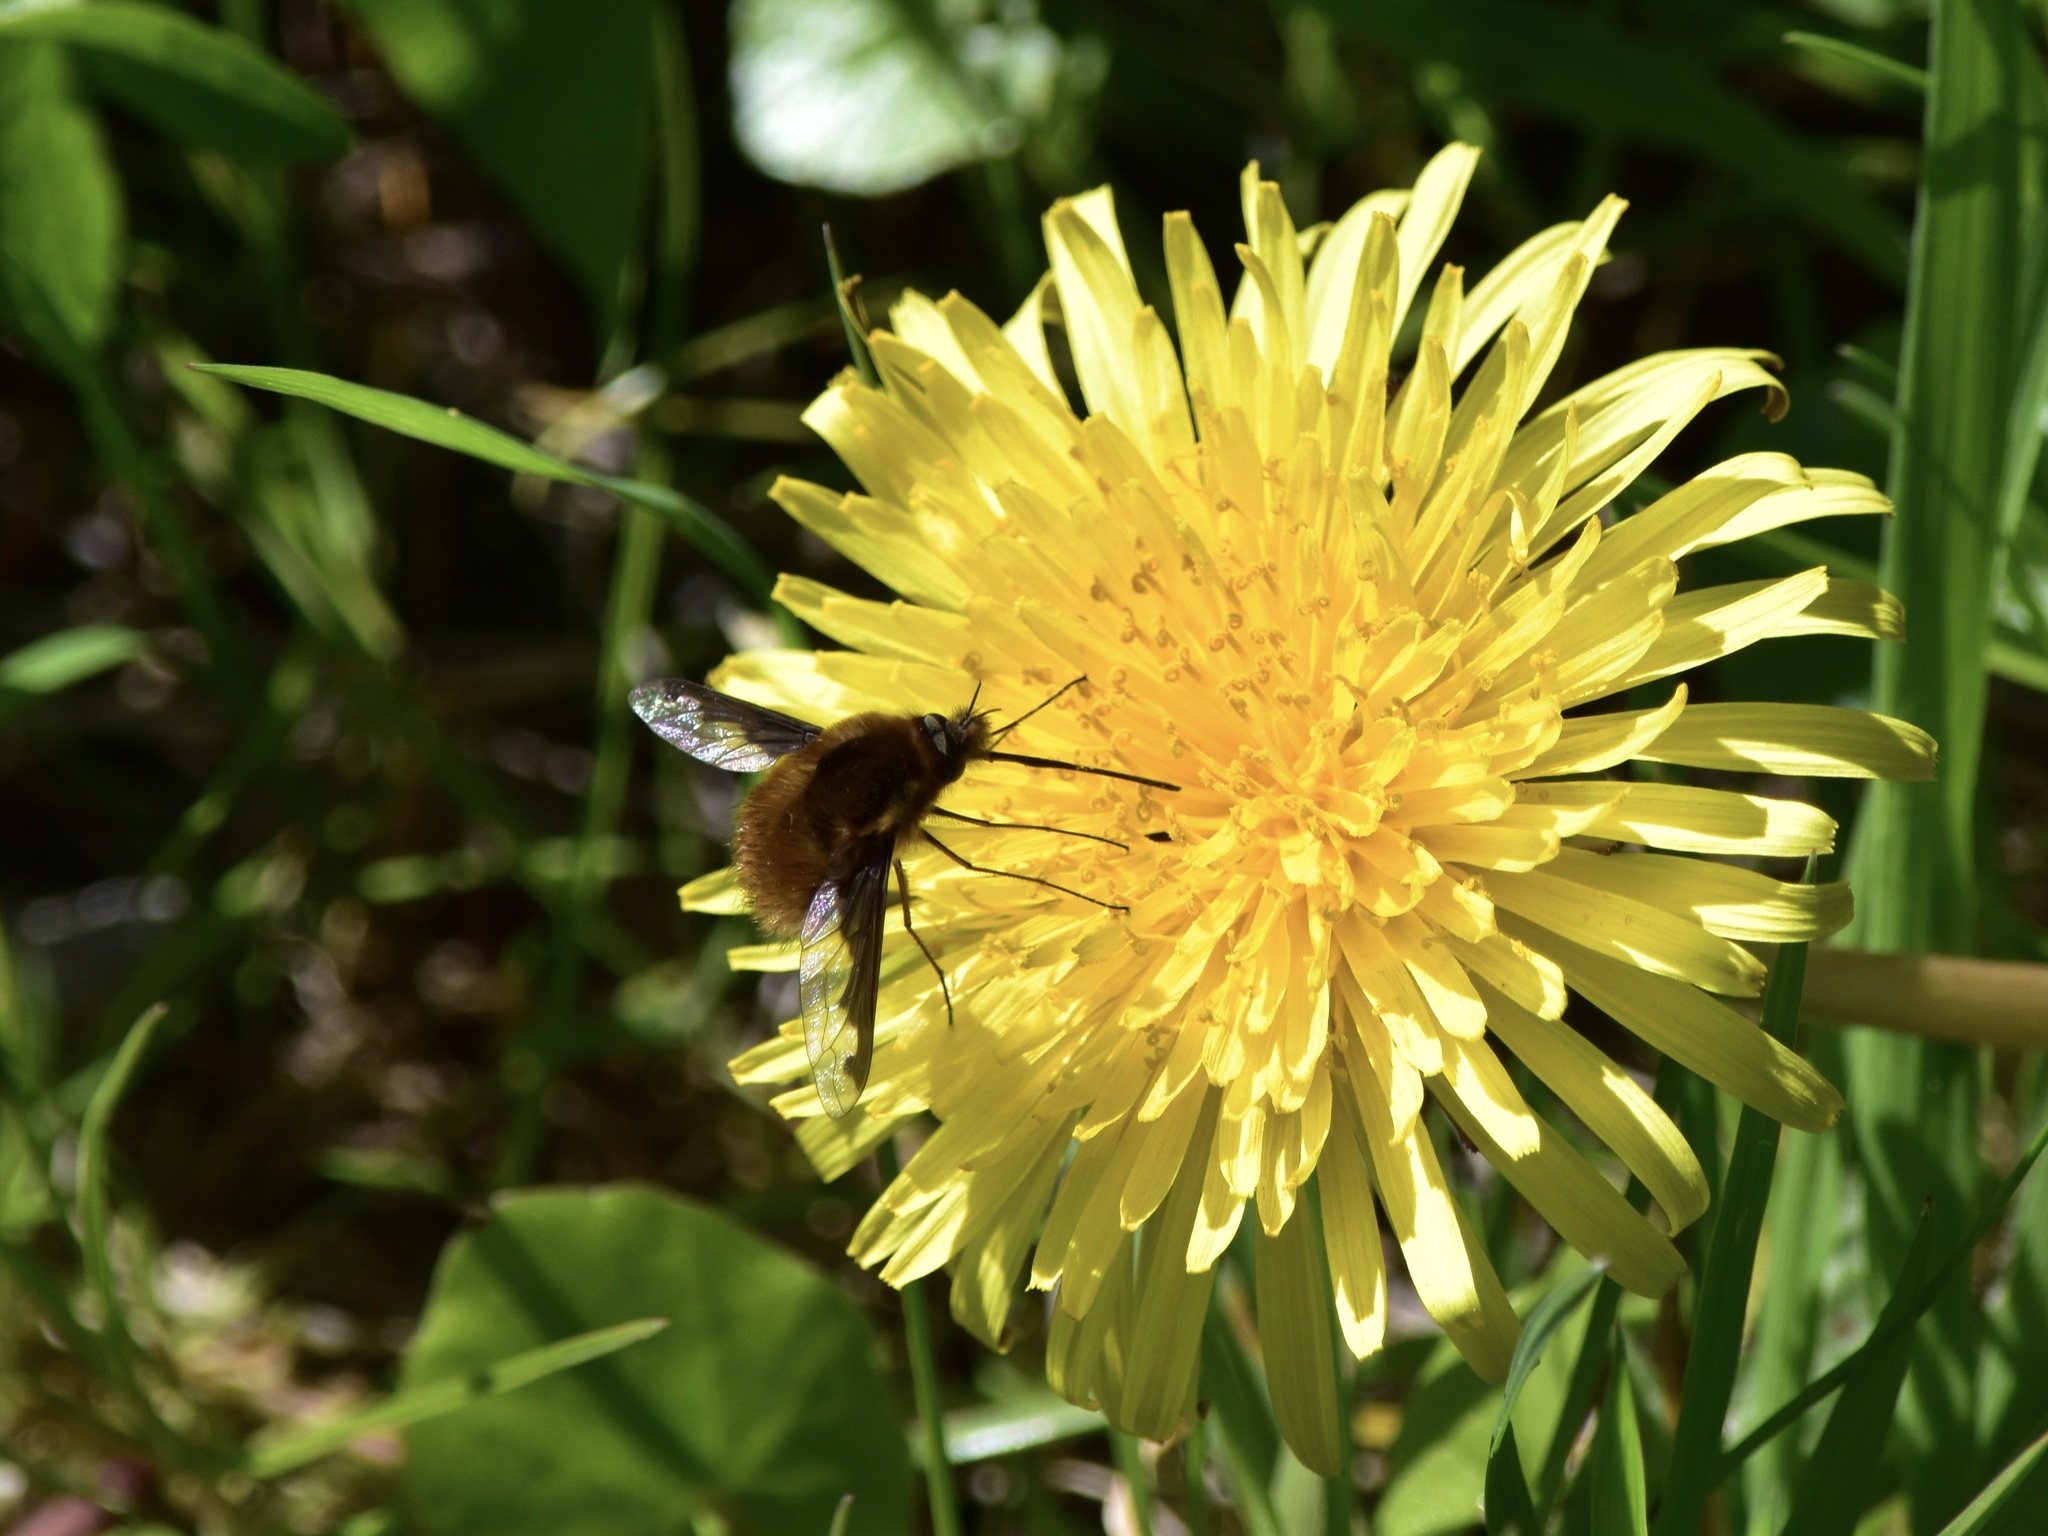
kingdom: Animalia
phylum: Arthropoda
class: Insecta
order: Diptera
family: Bombyliidae
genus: Bombylius
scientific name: Bombylius major
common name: Bee fly
